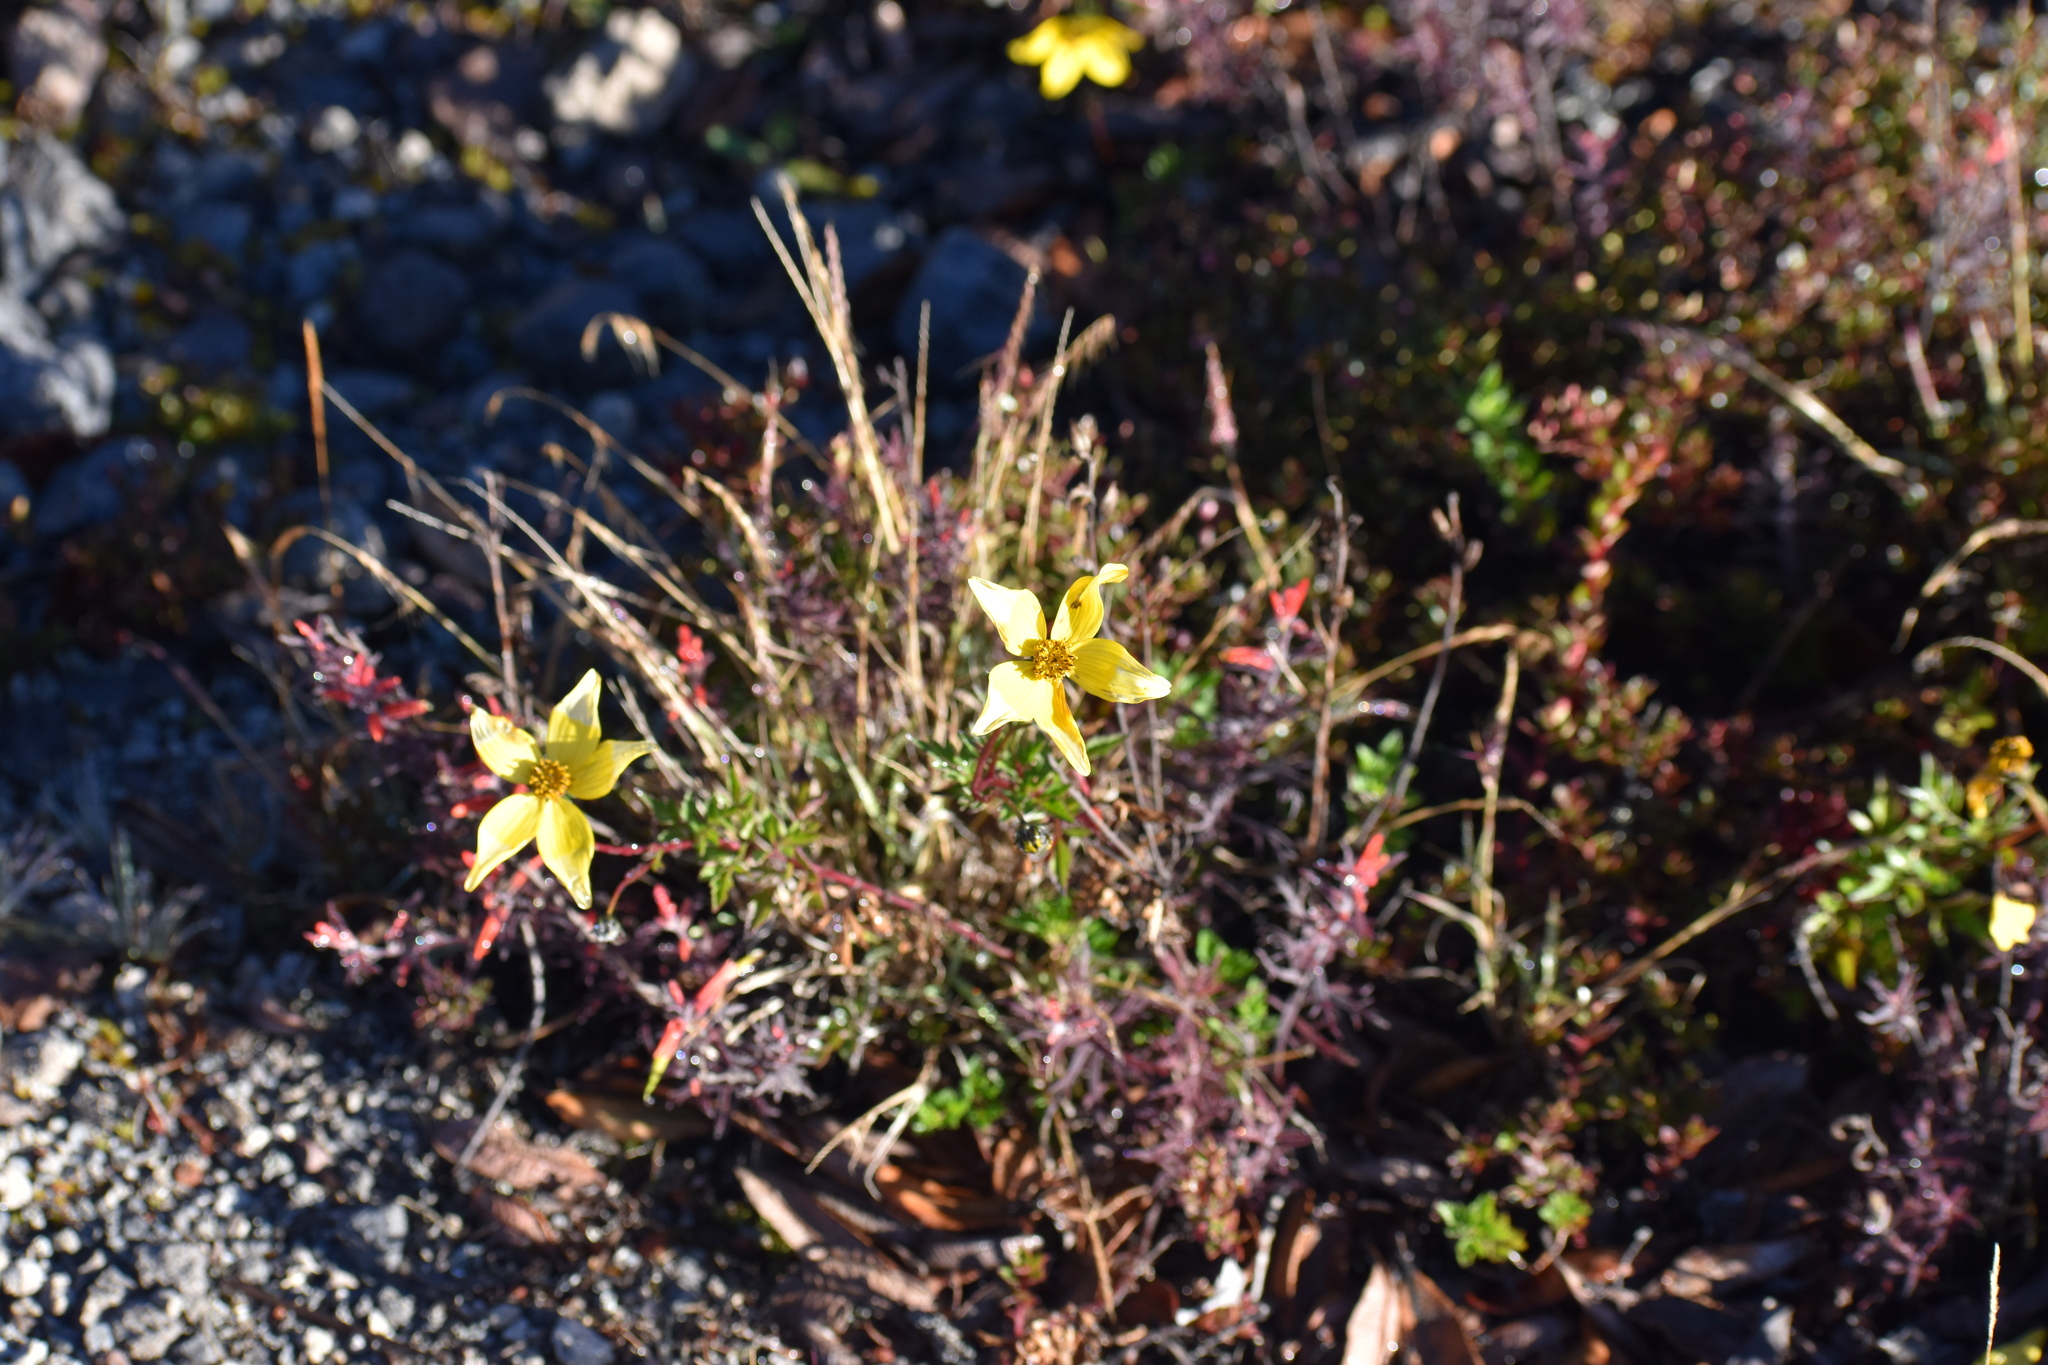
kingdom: Plantae
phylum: Tracheophyta
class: Magnoliopsida
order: Asterales
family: Asteraceae
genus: Bidens
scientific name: Bidens triplinervia
